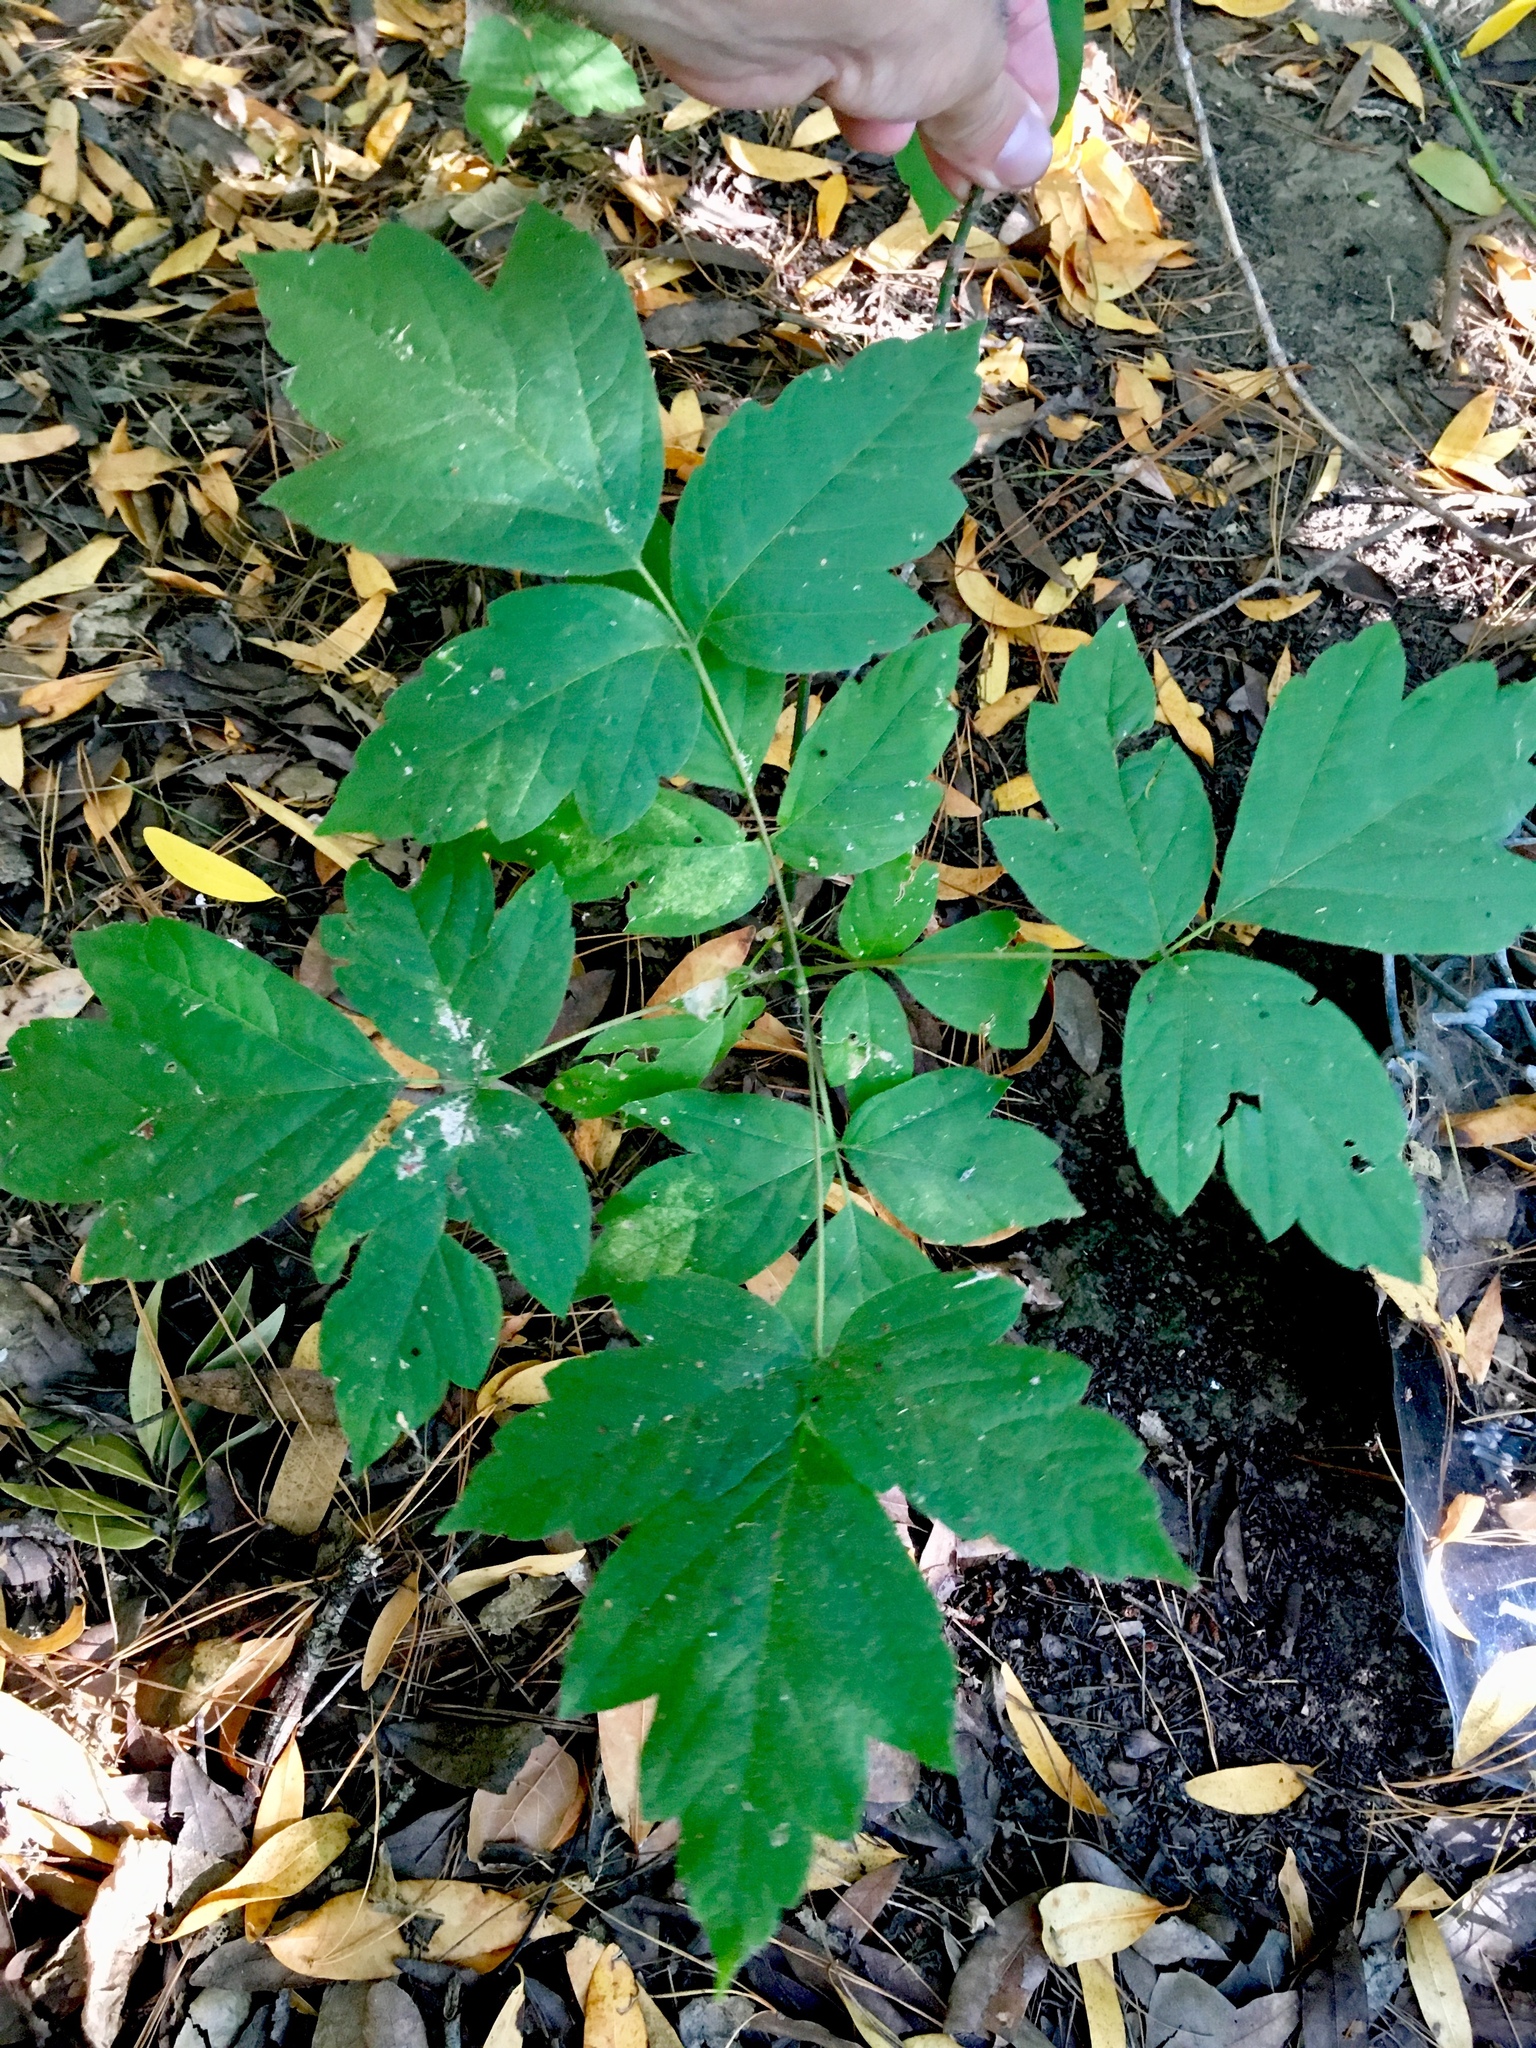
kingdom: Plantae
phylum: Tracheophyta
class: Magnoliopsida
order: Sapindales
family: Sapindaceae
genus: Acer
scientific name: Acer negundo
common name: Ashleaf maple
